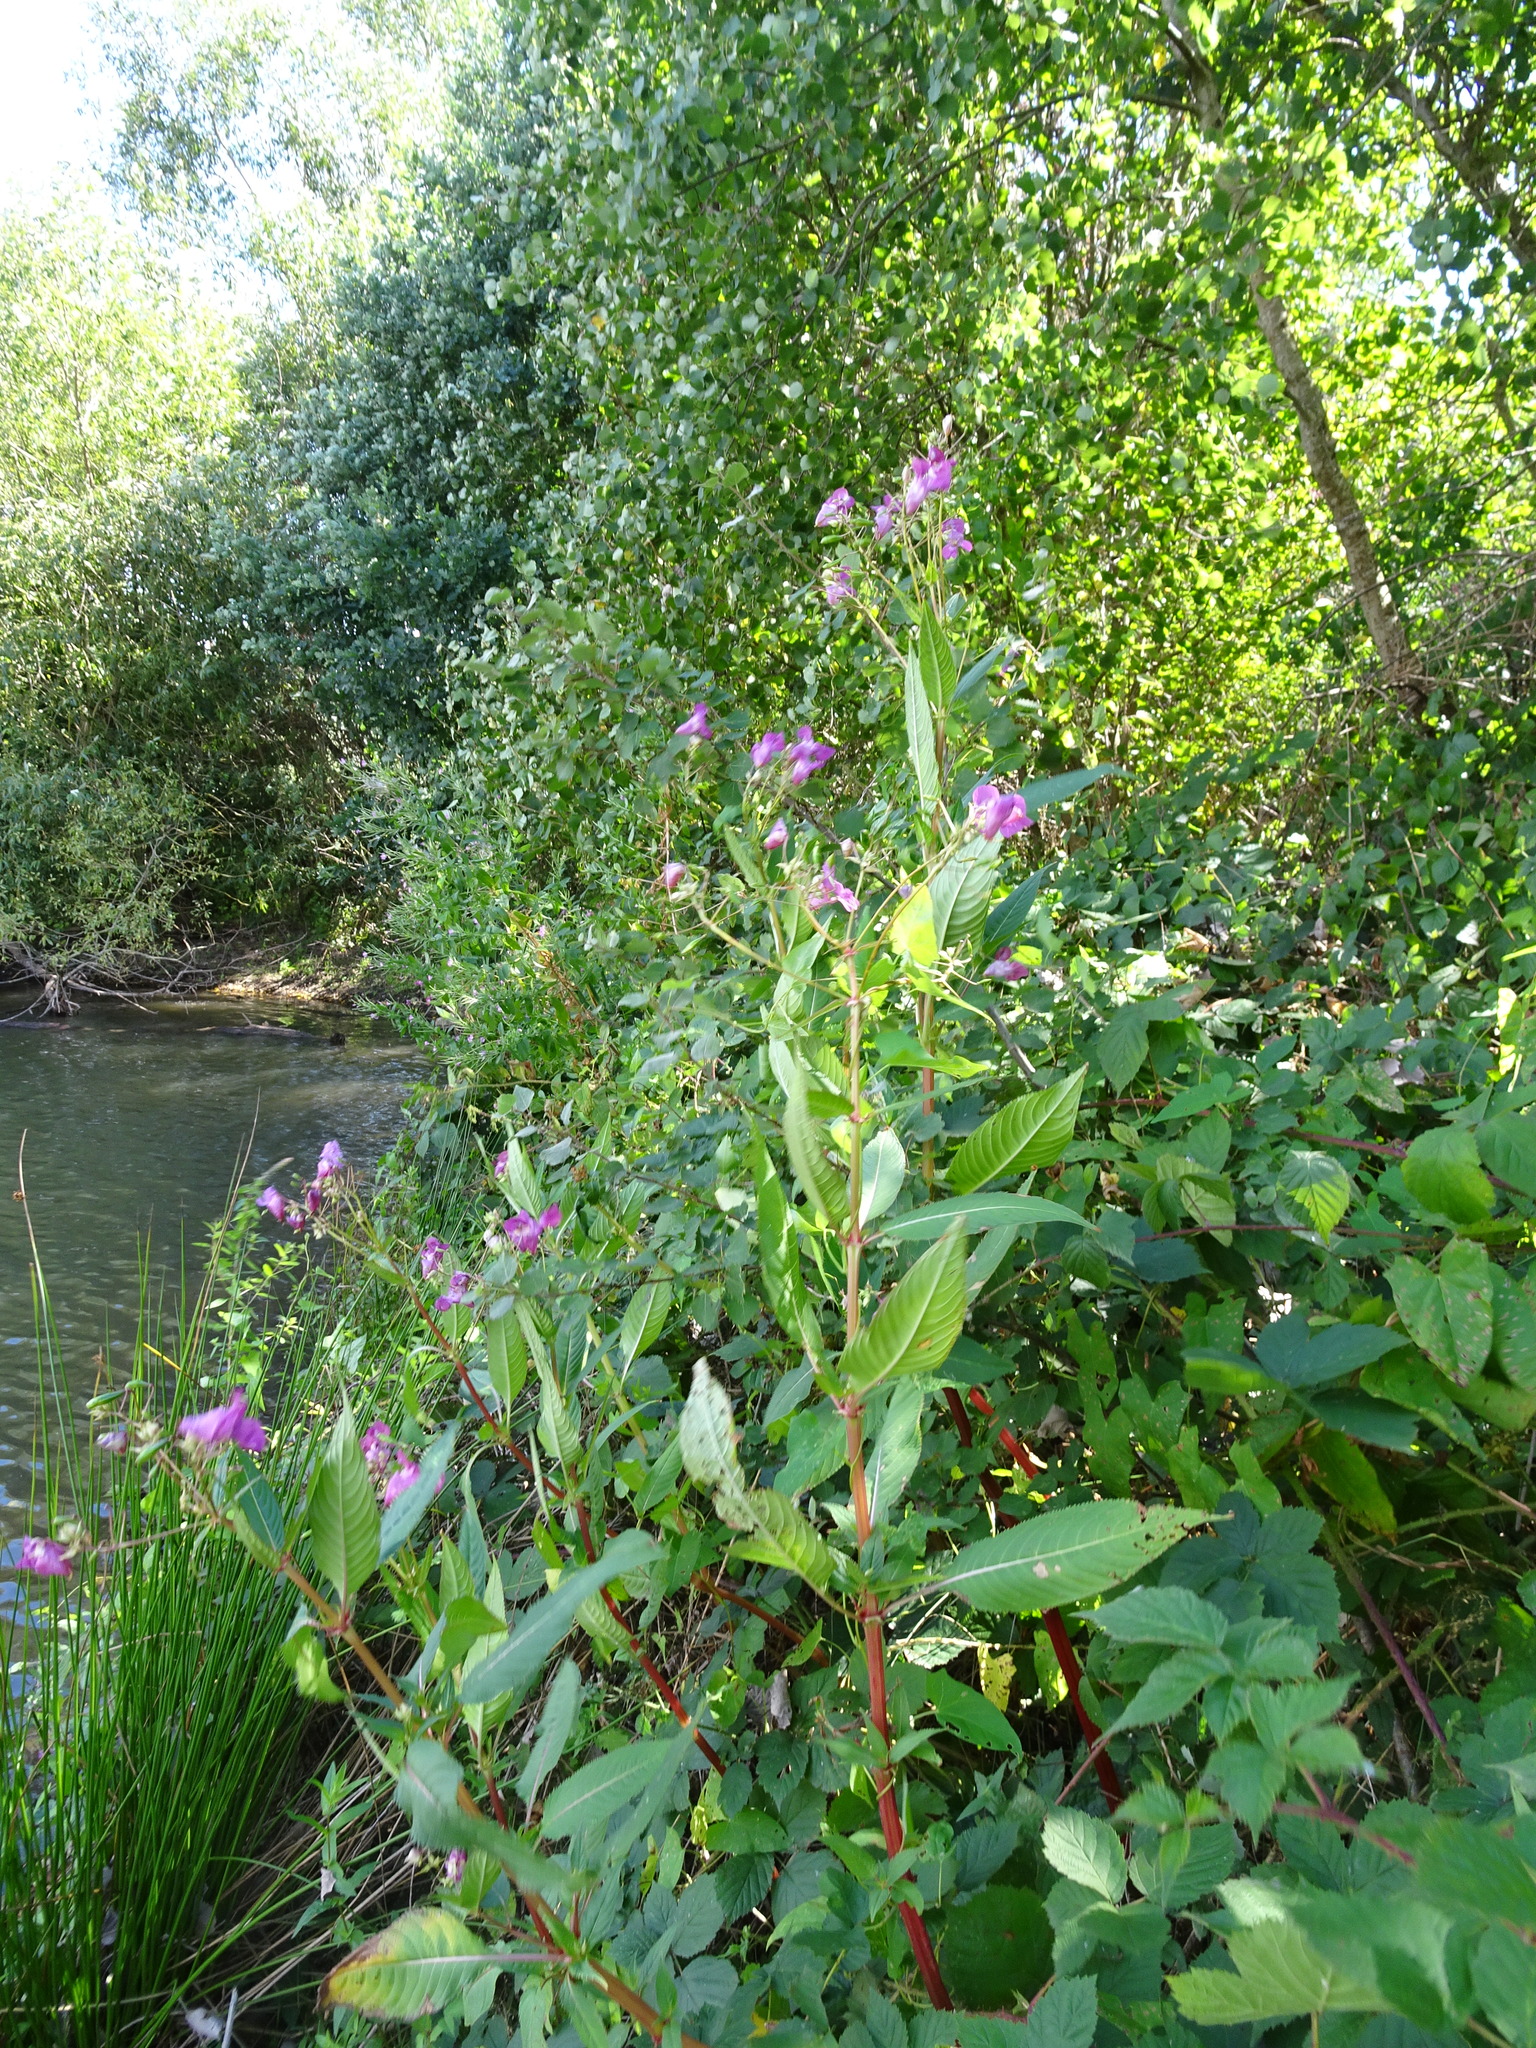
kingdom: Plantae
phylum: Tracheophyta
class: Magnoliopsida
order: Ericales
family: Balsaminaceae
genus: Impatiens
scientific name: Impatiens glandulifera
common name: Himalayan balsam
